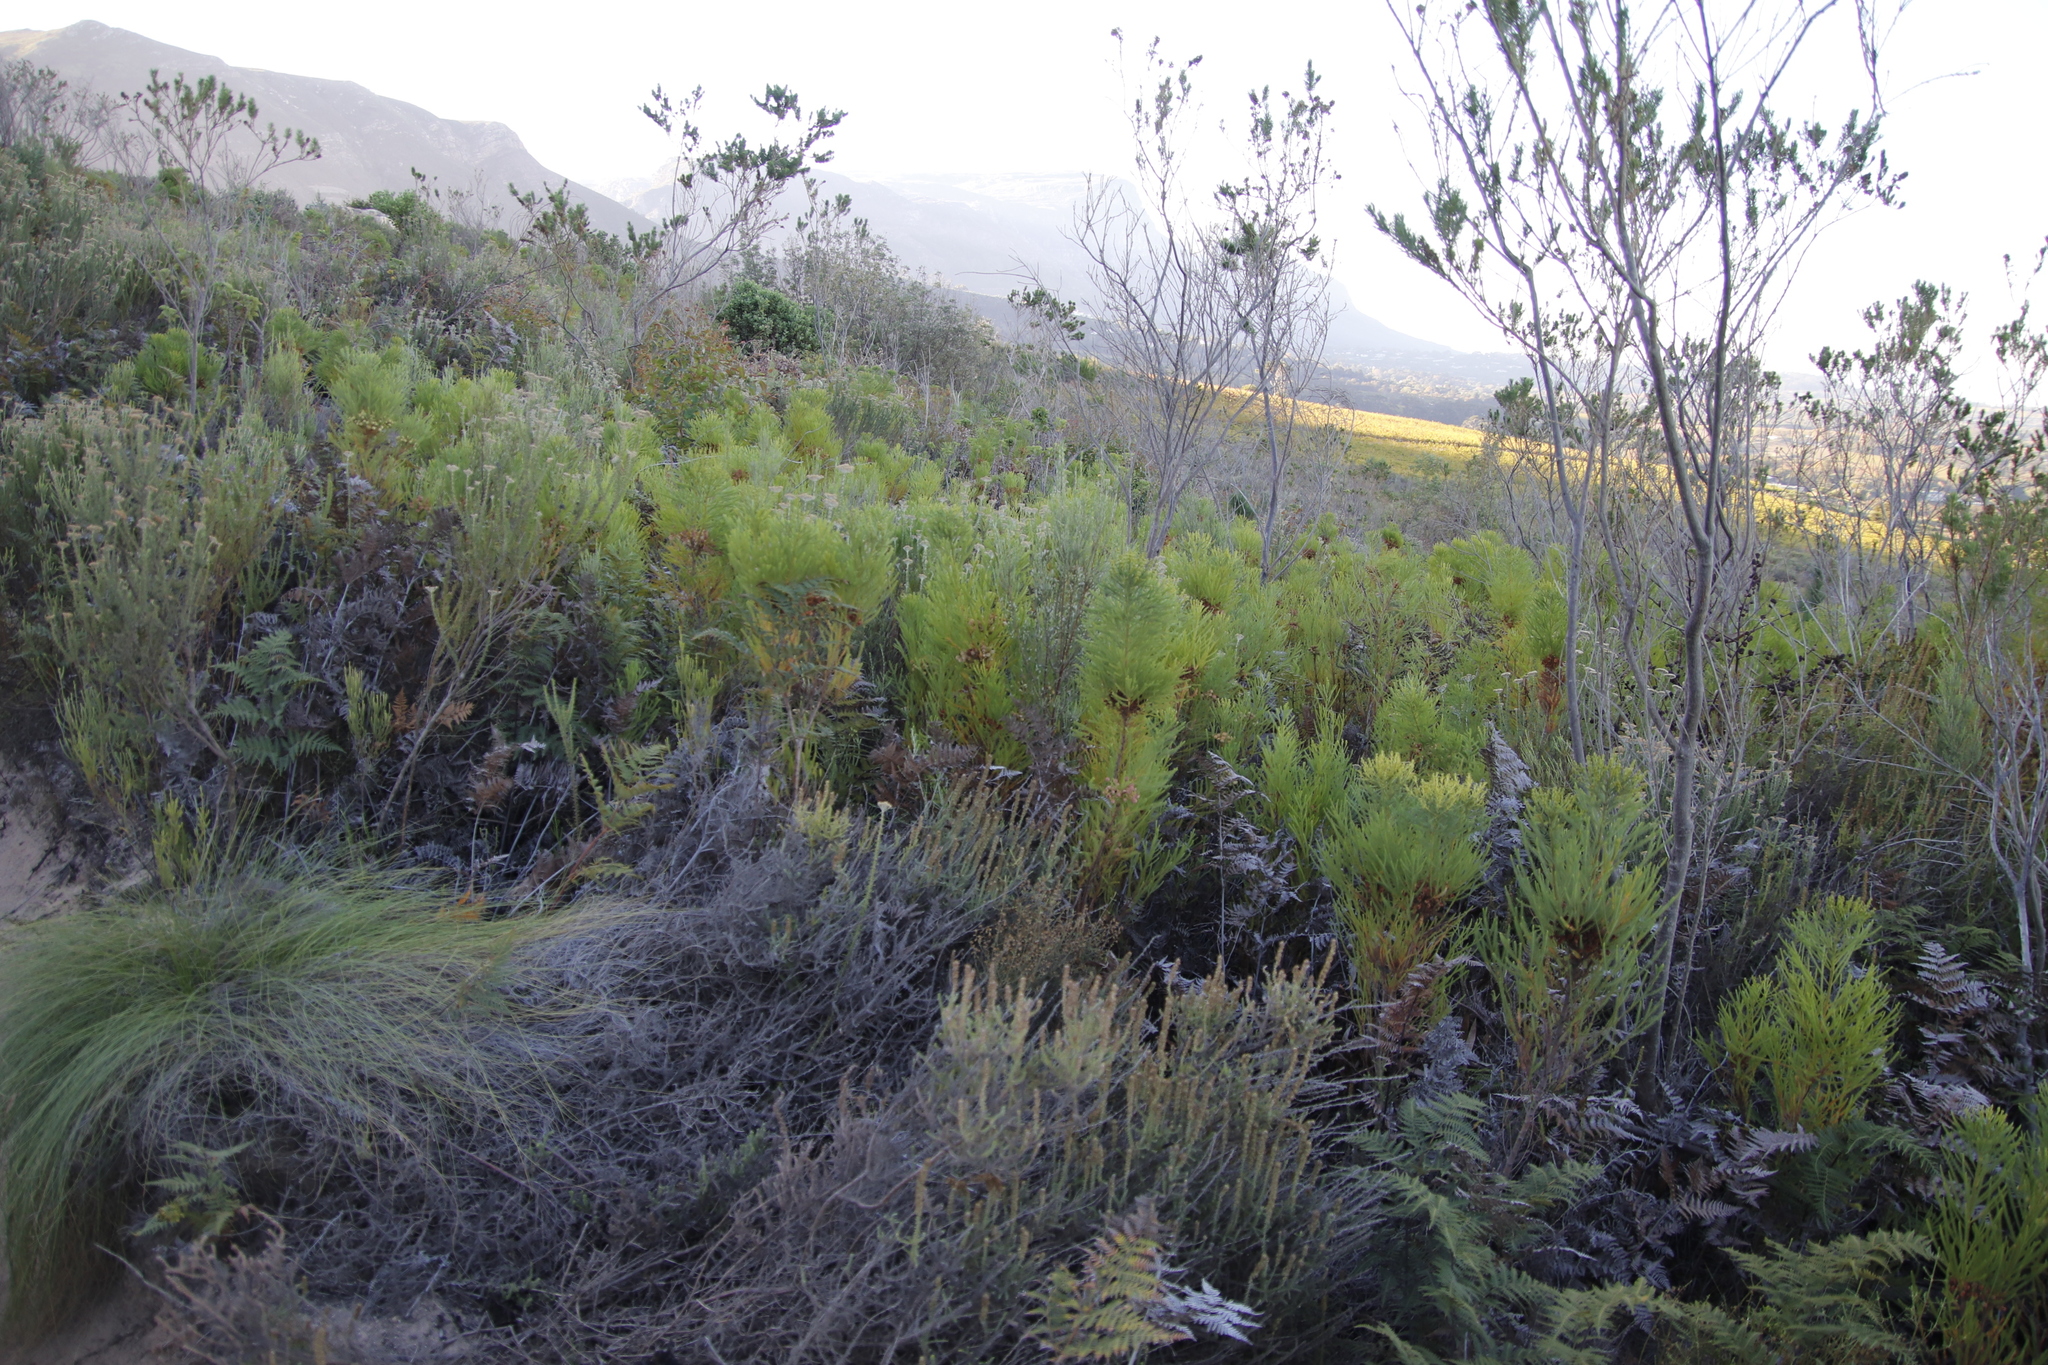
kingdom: Plantae
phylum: Tracheophyta
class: Magnoliopsida
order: Bruniales
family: Bruniaceae
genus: Berzelia
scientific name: Berzelia lanuginosa
